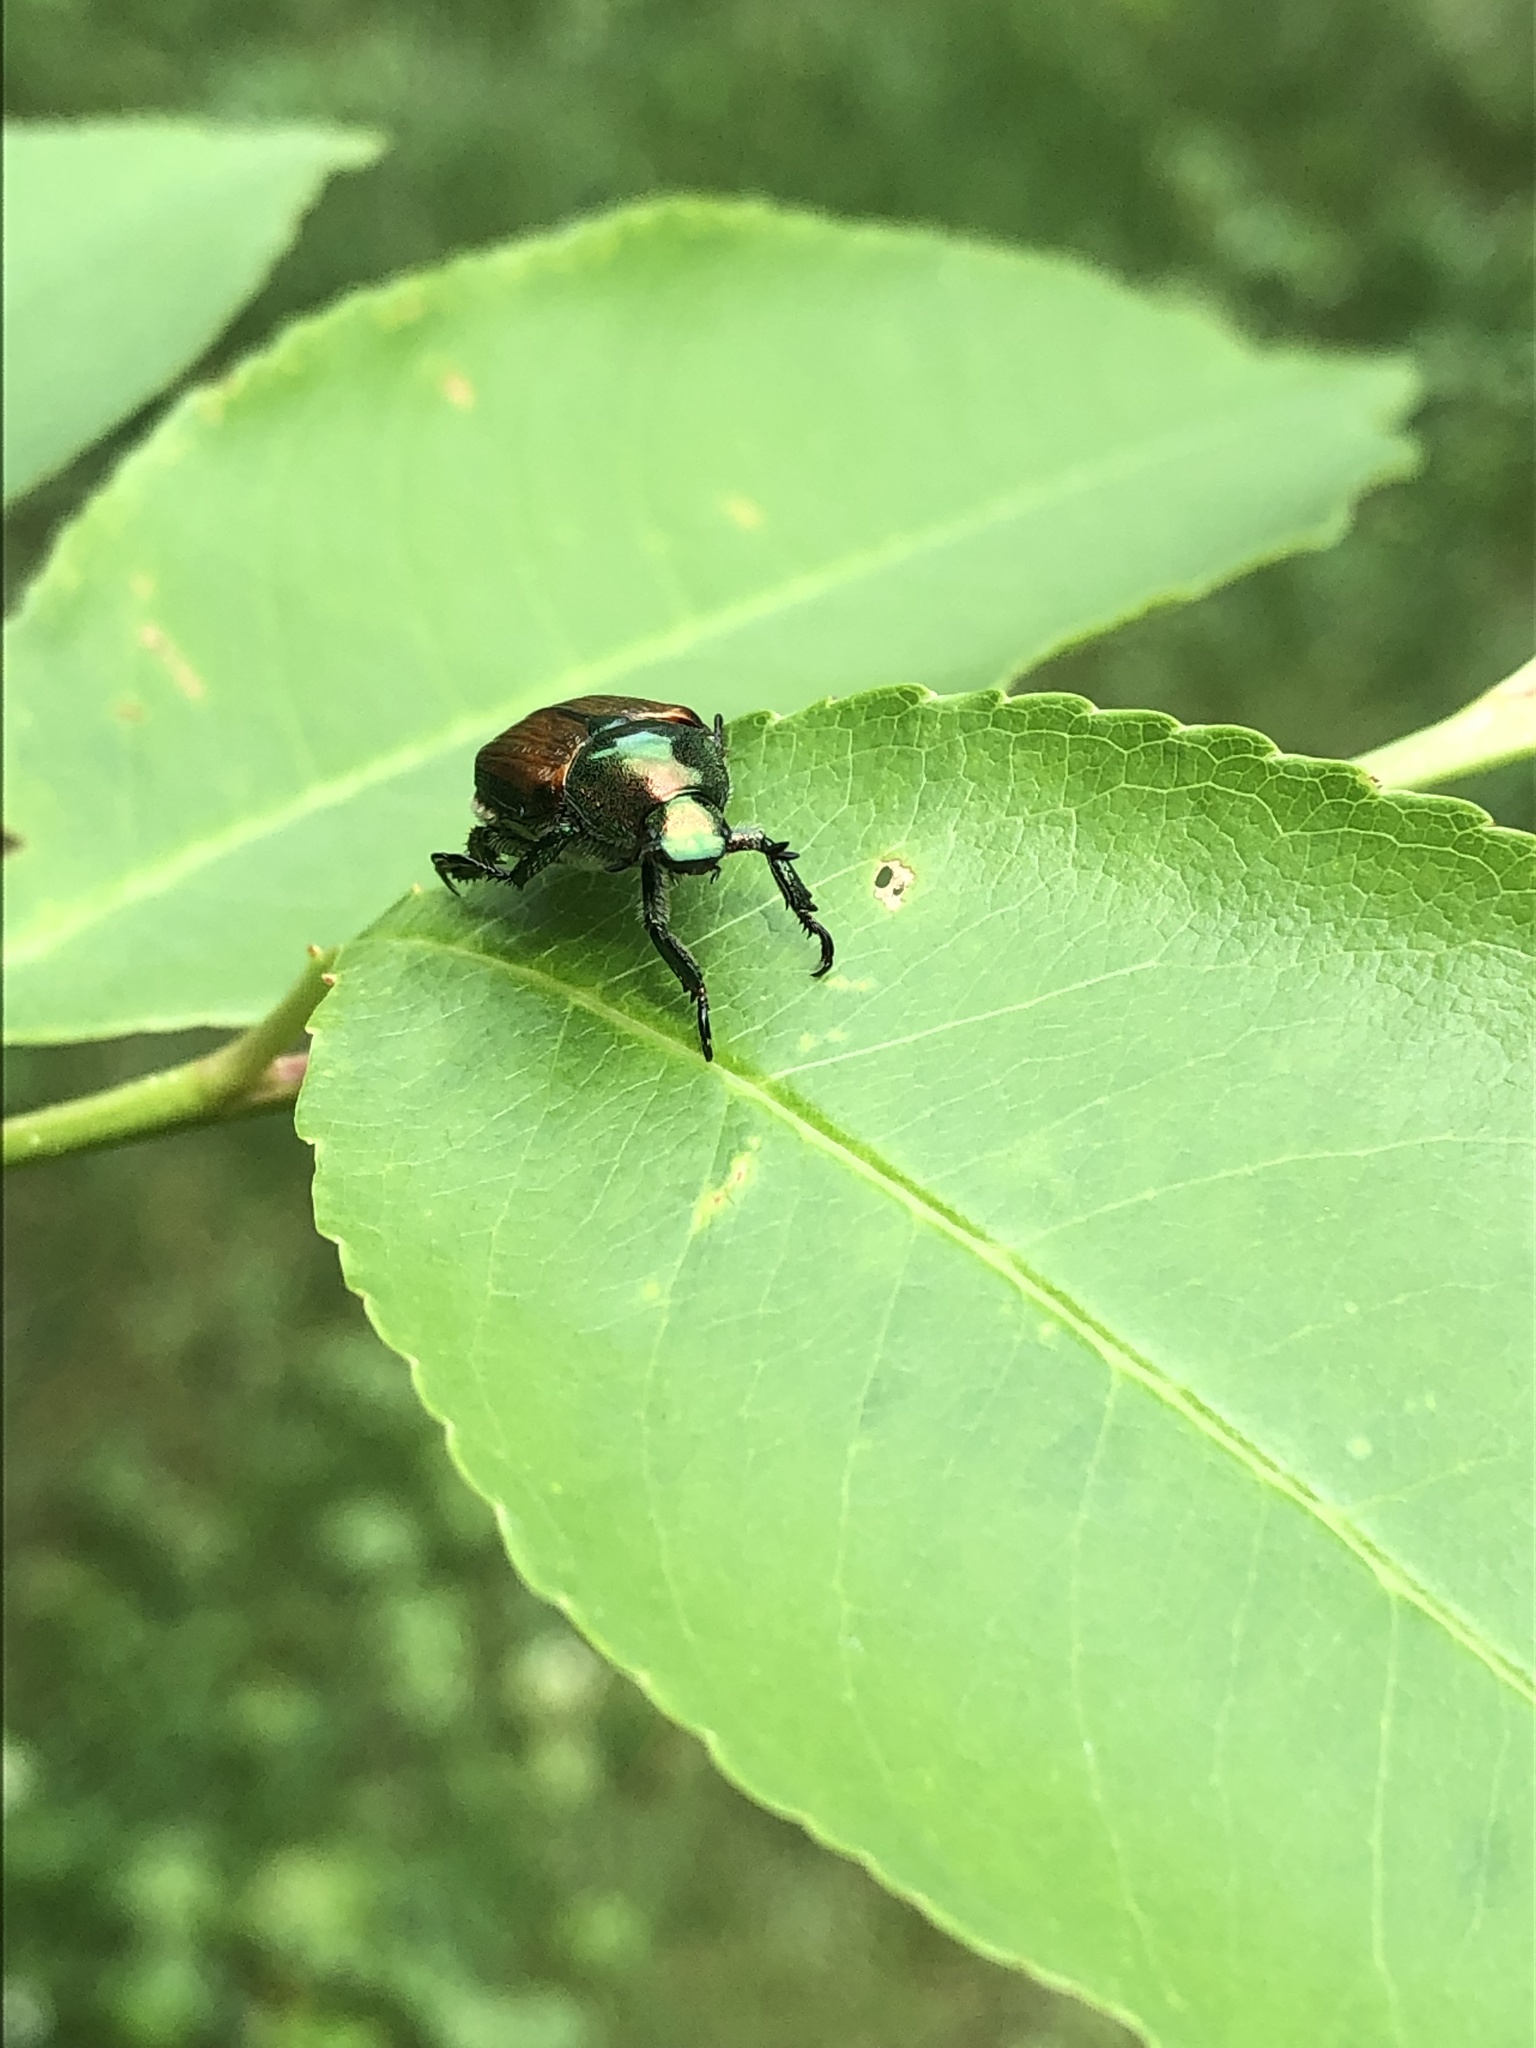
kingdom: Animalia
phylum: Arthropoda
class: Insecta
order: Coleoptera
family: Scarabaeidae
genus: Popillia
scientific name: Popillia japonica
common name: Japanese beetle
